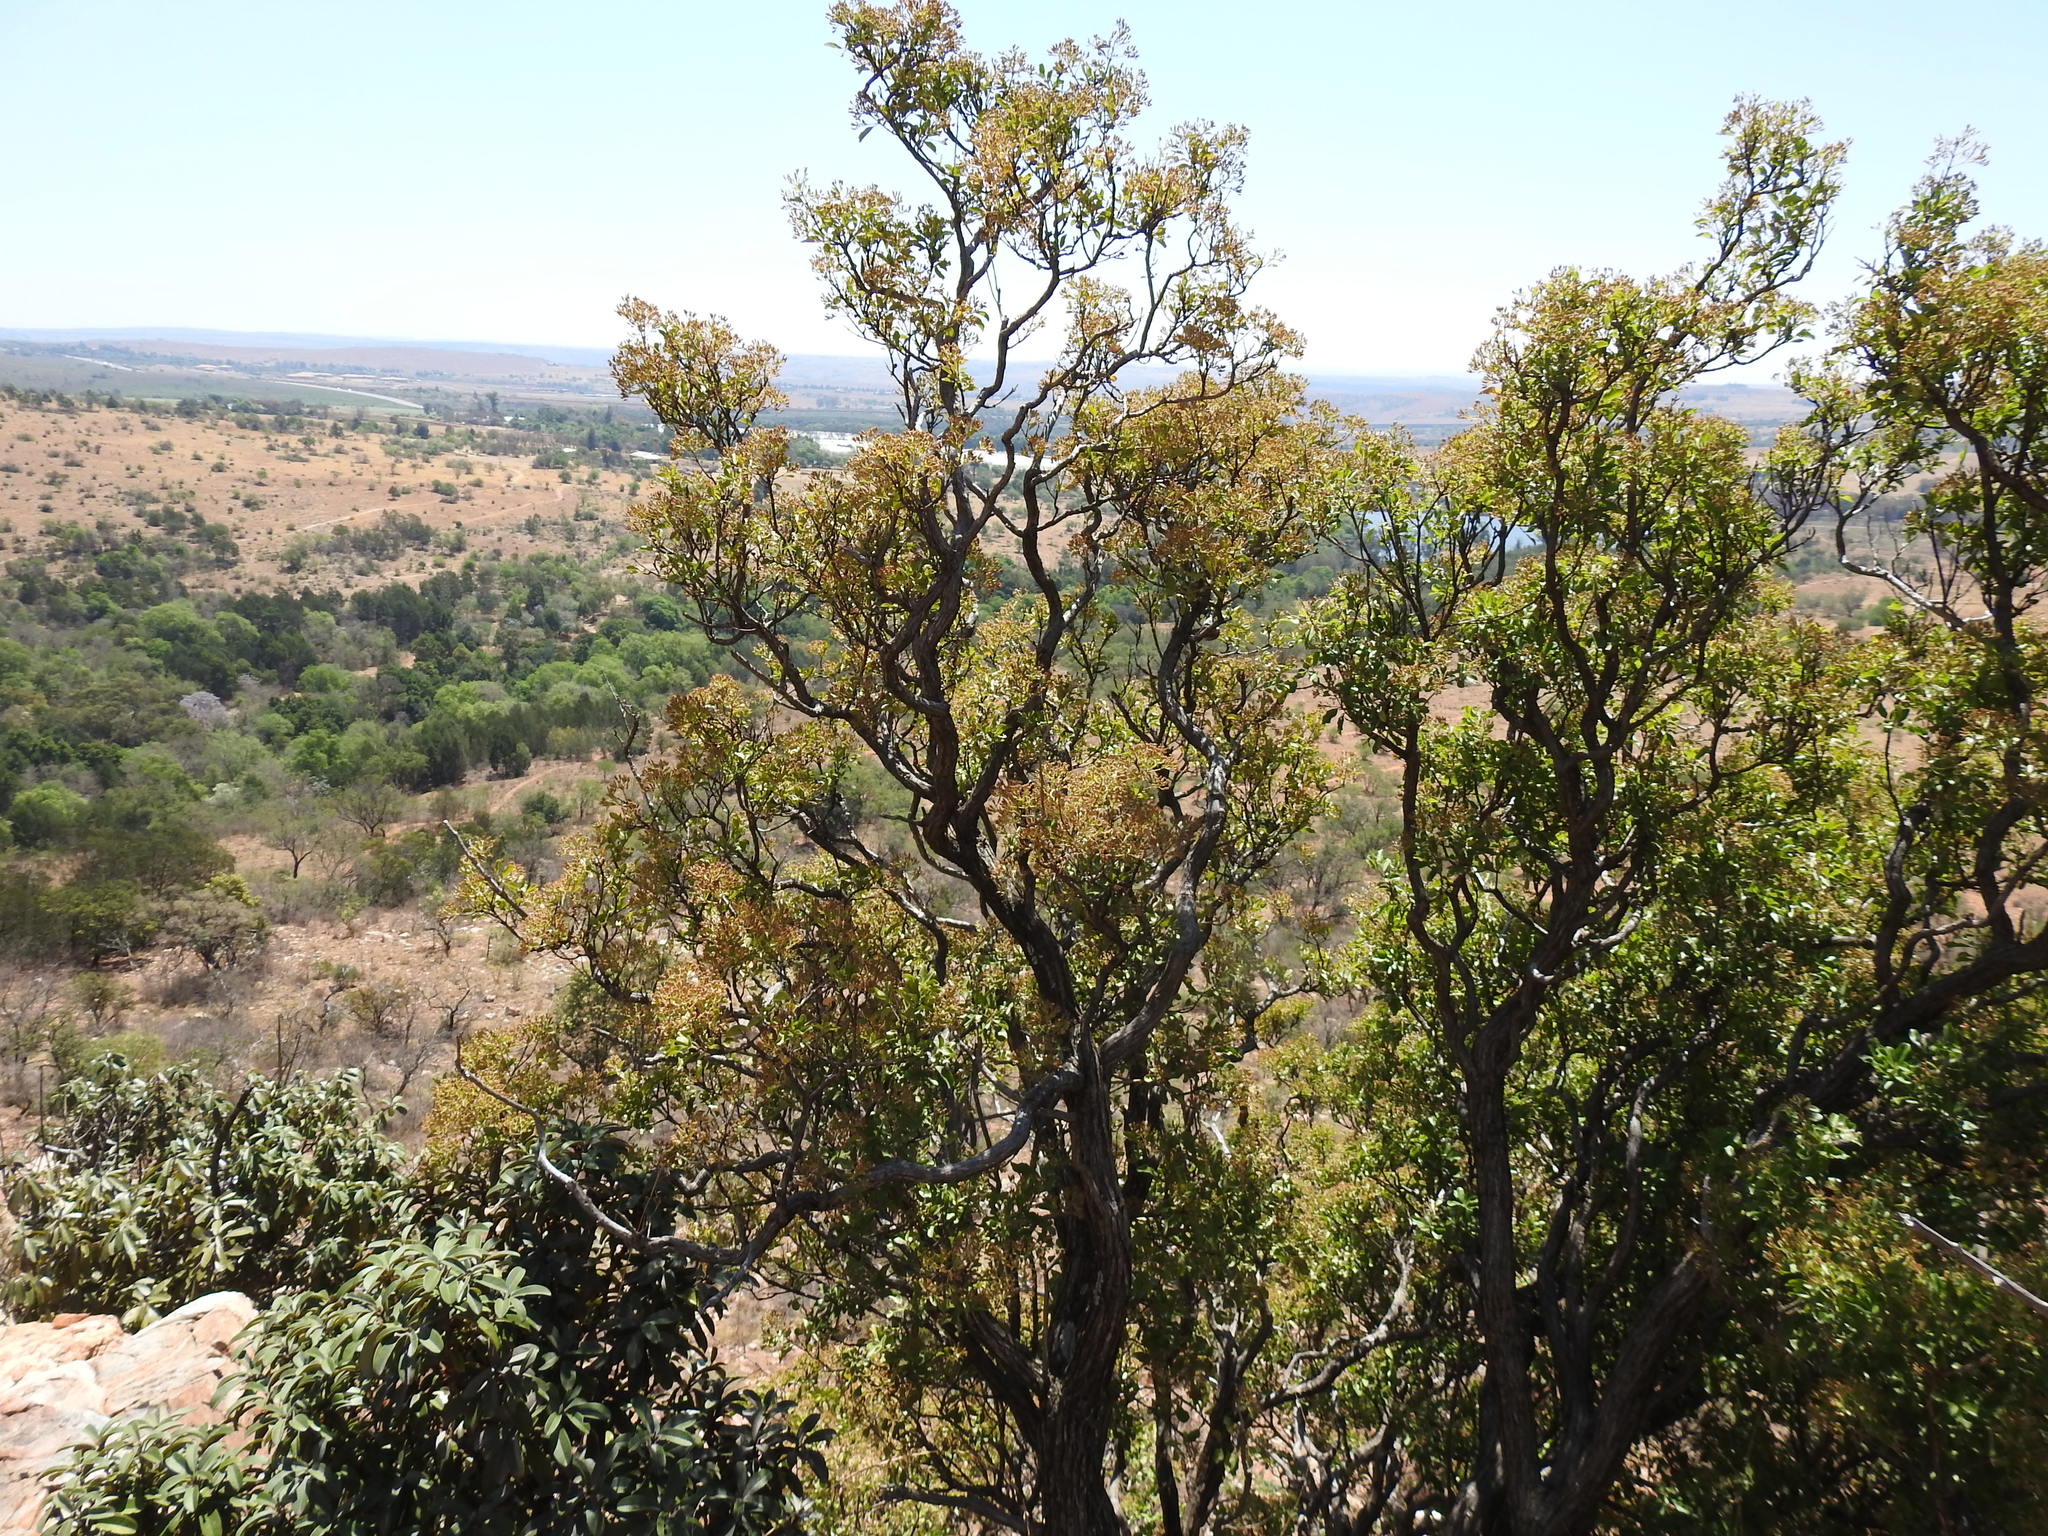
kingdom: Plantae
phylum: Tracheophyta
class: Magnoliopsida
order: Lamiales
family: Stilbaceae
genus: Nuxia
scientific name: Nuxia congesta
